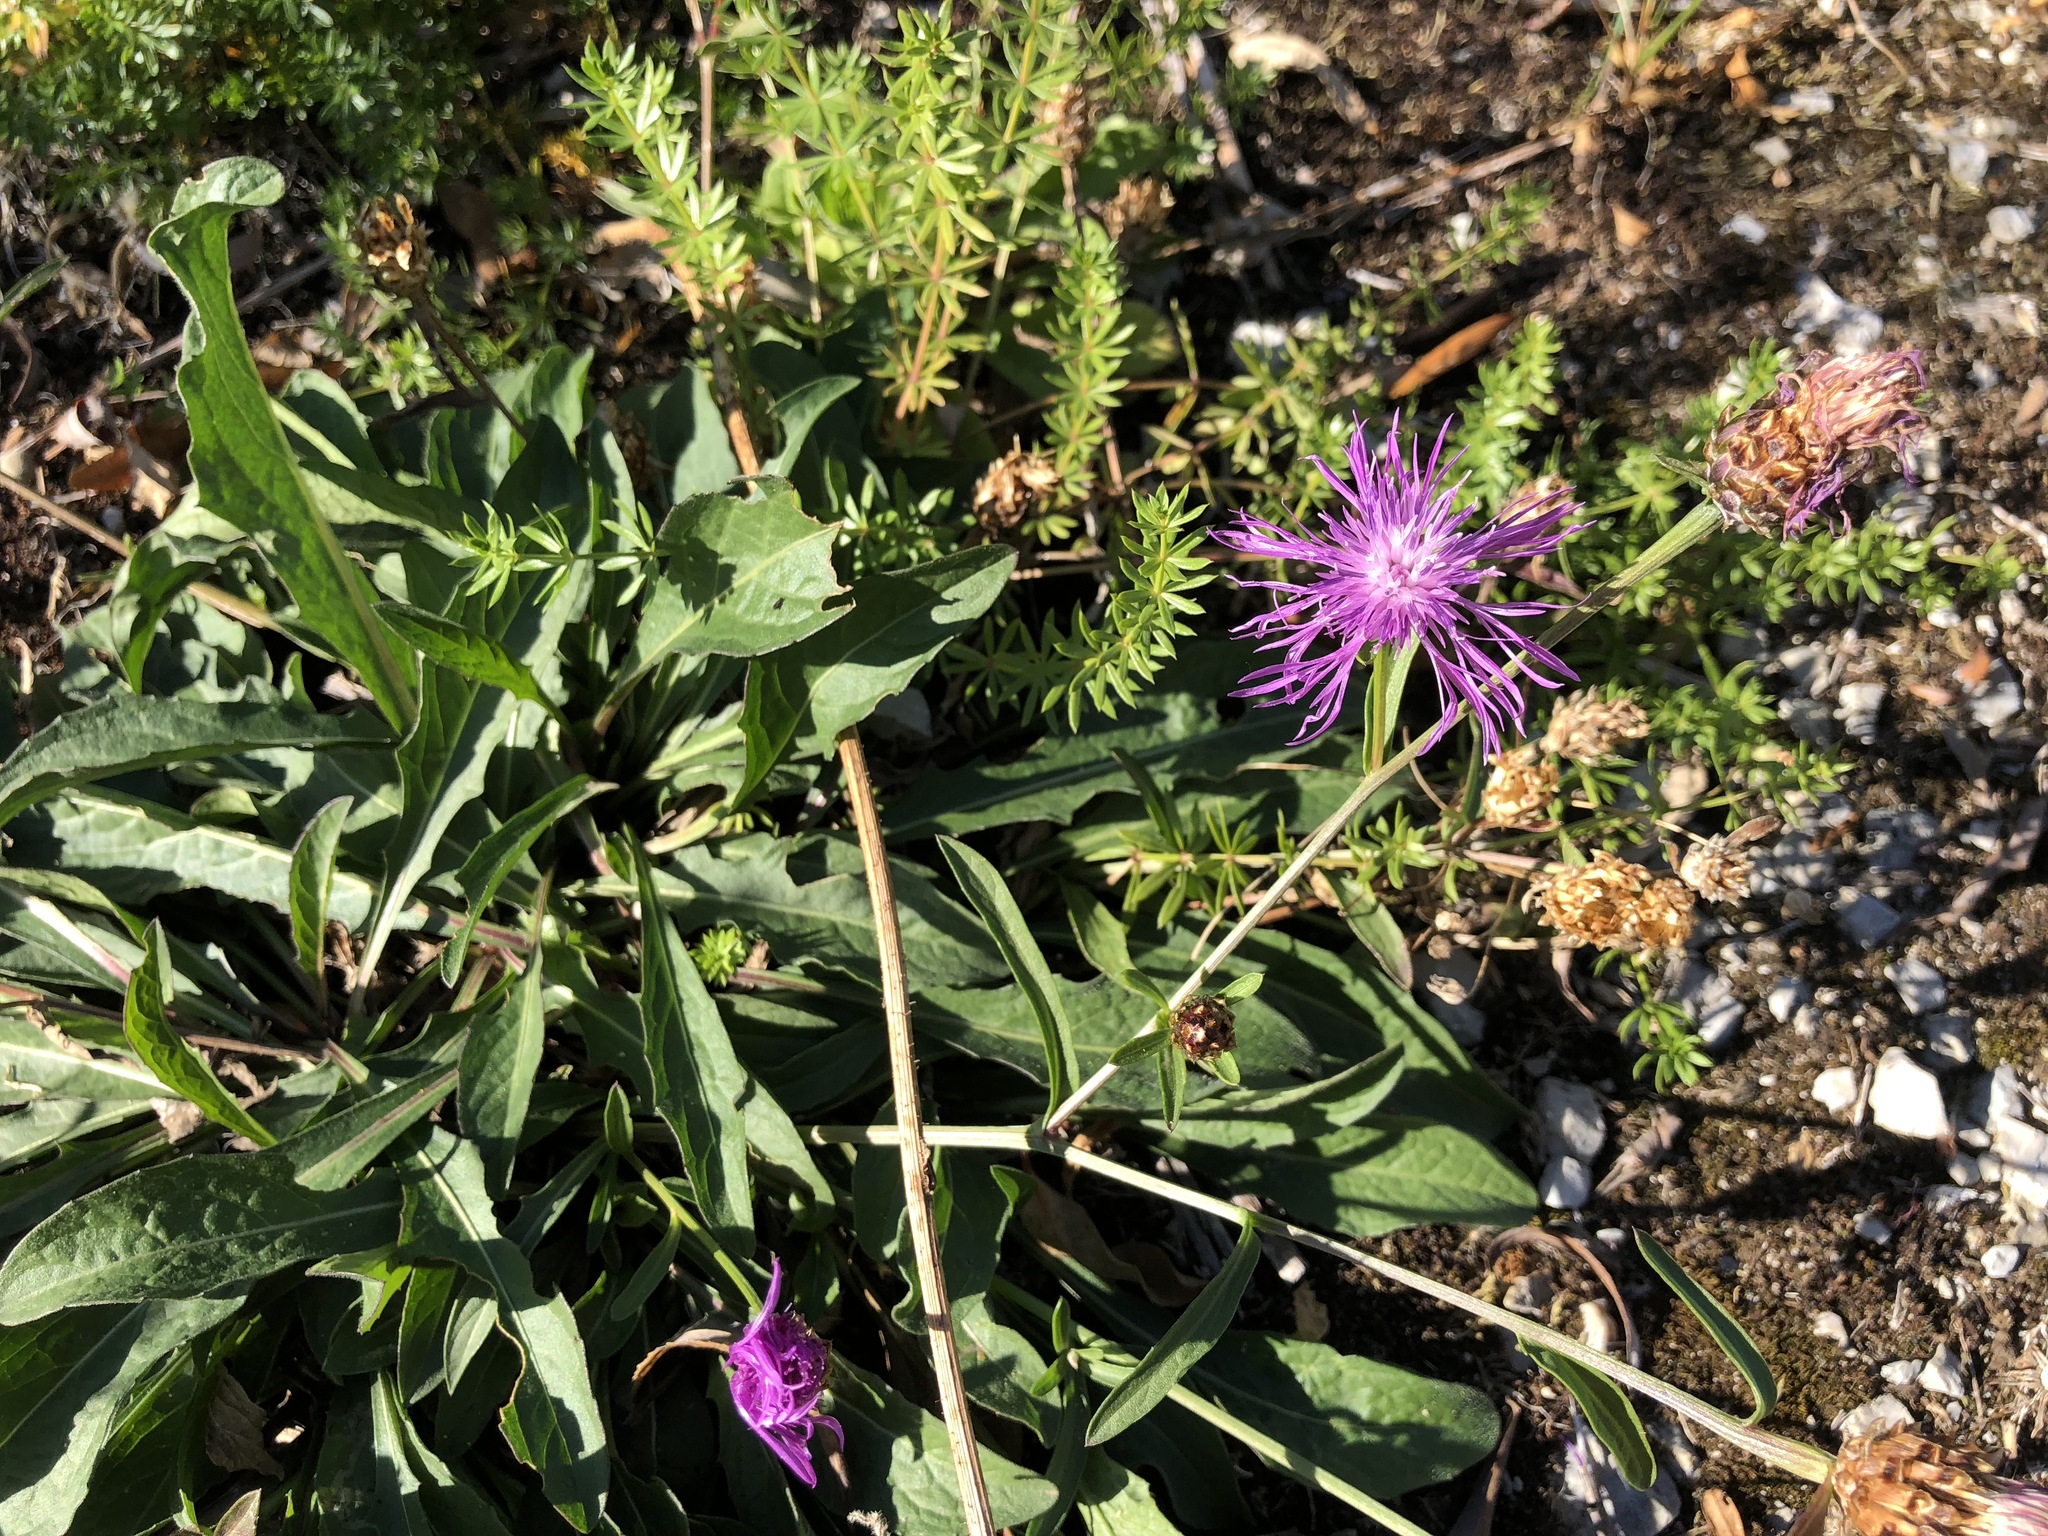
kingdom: Plantae
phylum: Tracheophyta
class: Magnoliopsida
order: Asterales
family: Asteraceae
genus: Centaurea
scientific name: Centaurea jacea
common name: Brown knapweed
